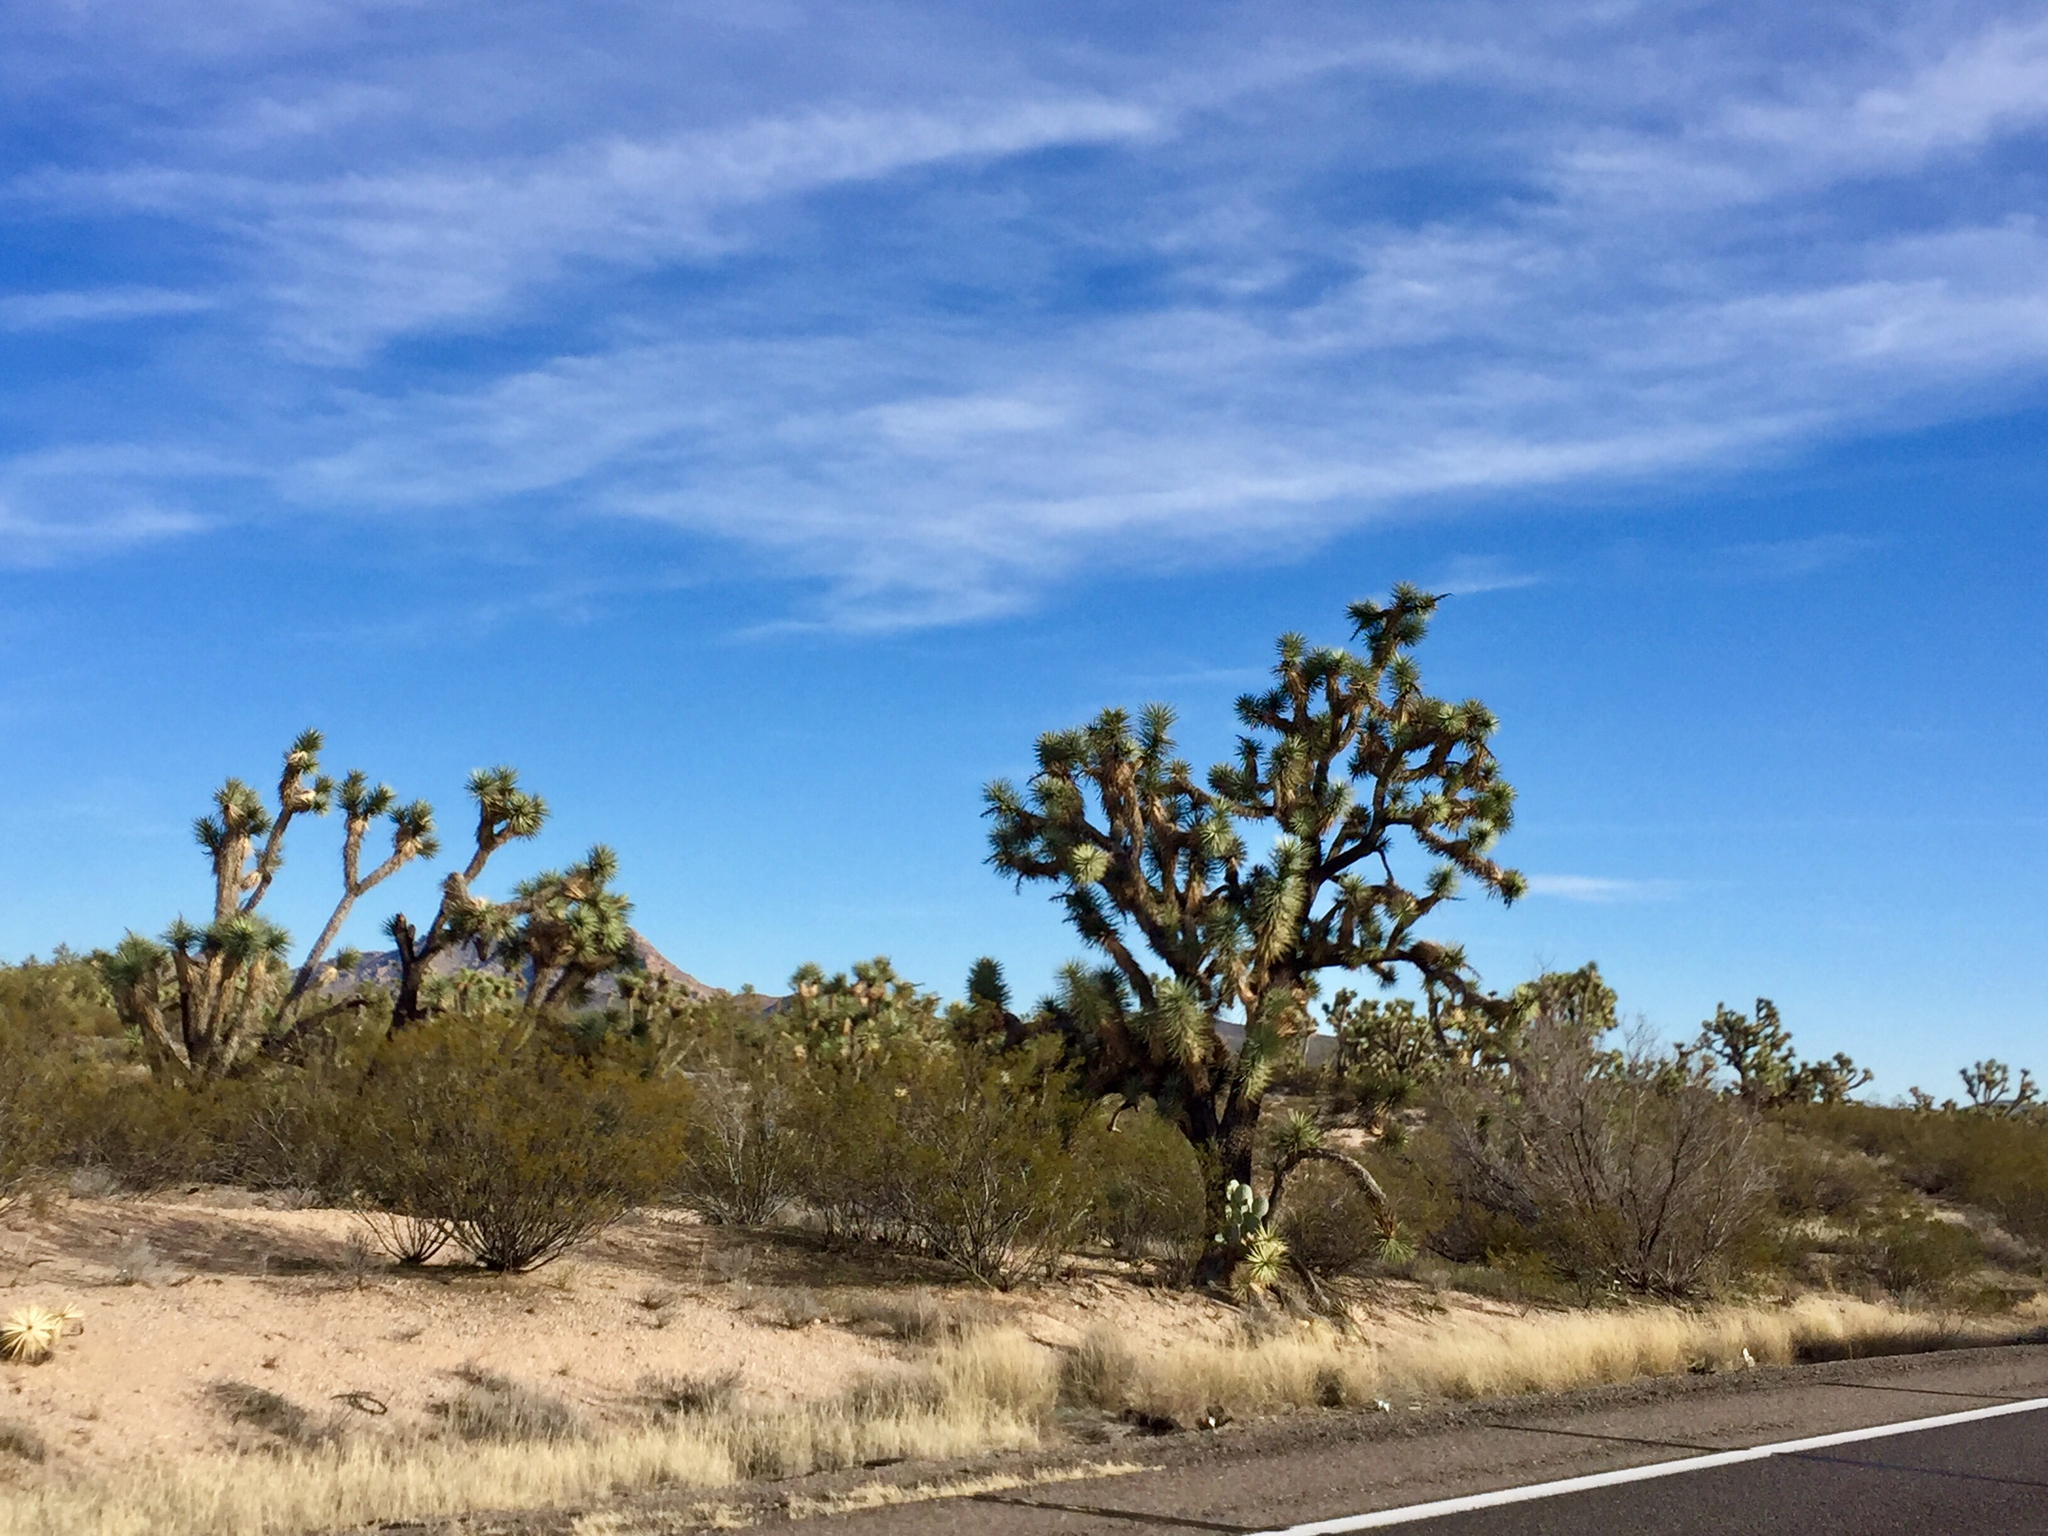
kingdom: Plantae
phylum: Tracheophyta
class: Liliopsida
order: Asparagales
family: Asparagaceae
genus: Yucca
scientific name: Yucca brevifolia
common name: Joshua tree
